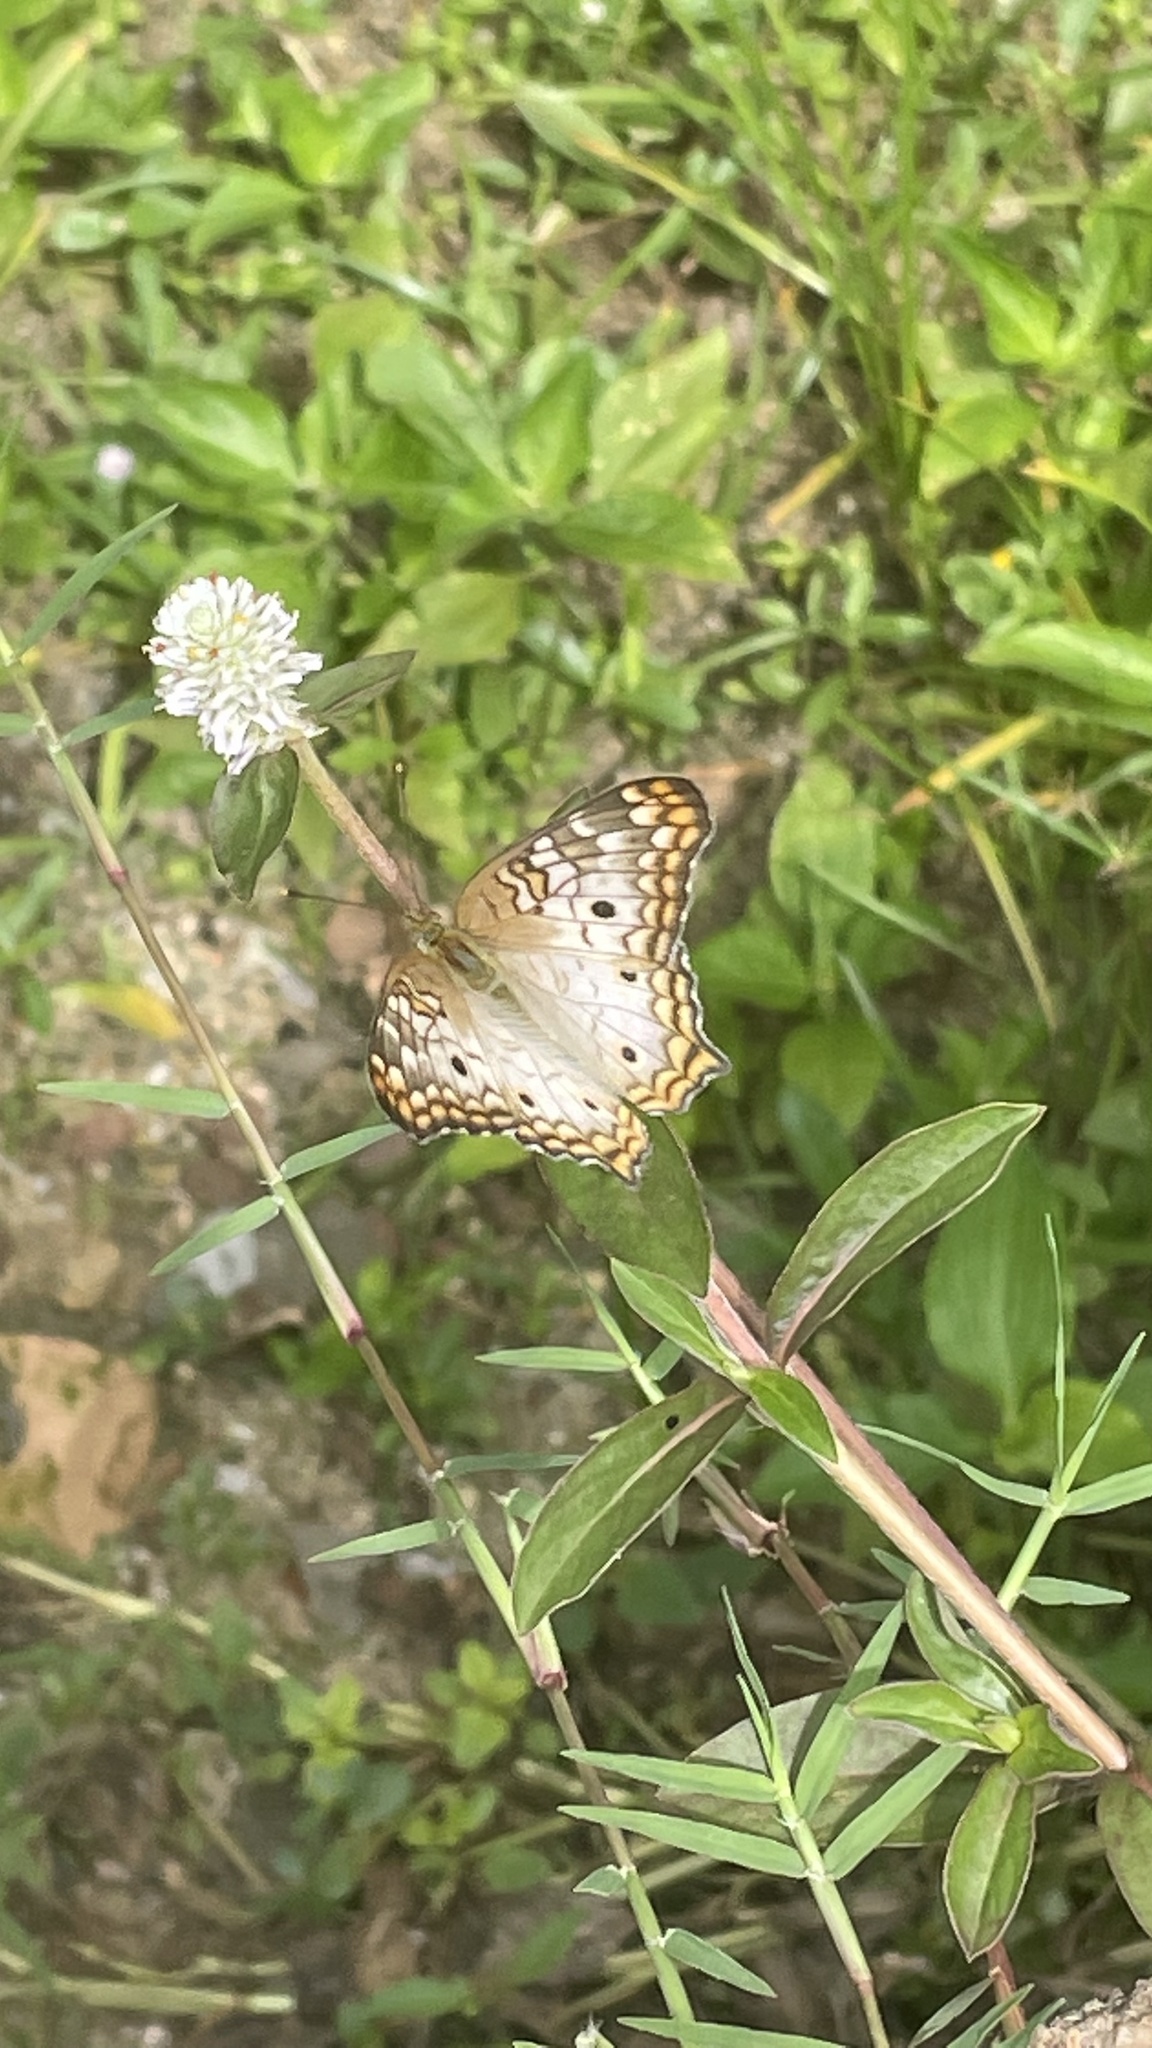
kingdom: Animalia
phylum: Arthropoda
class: Insecta
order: Lepidoptera
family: Nymphalidae
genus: Anartia
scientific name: Anartia jatrophae
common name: White peacock
